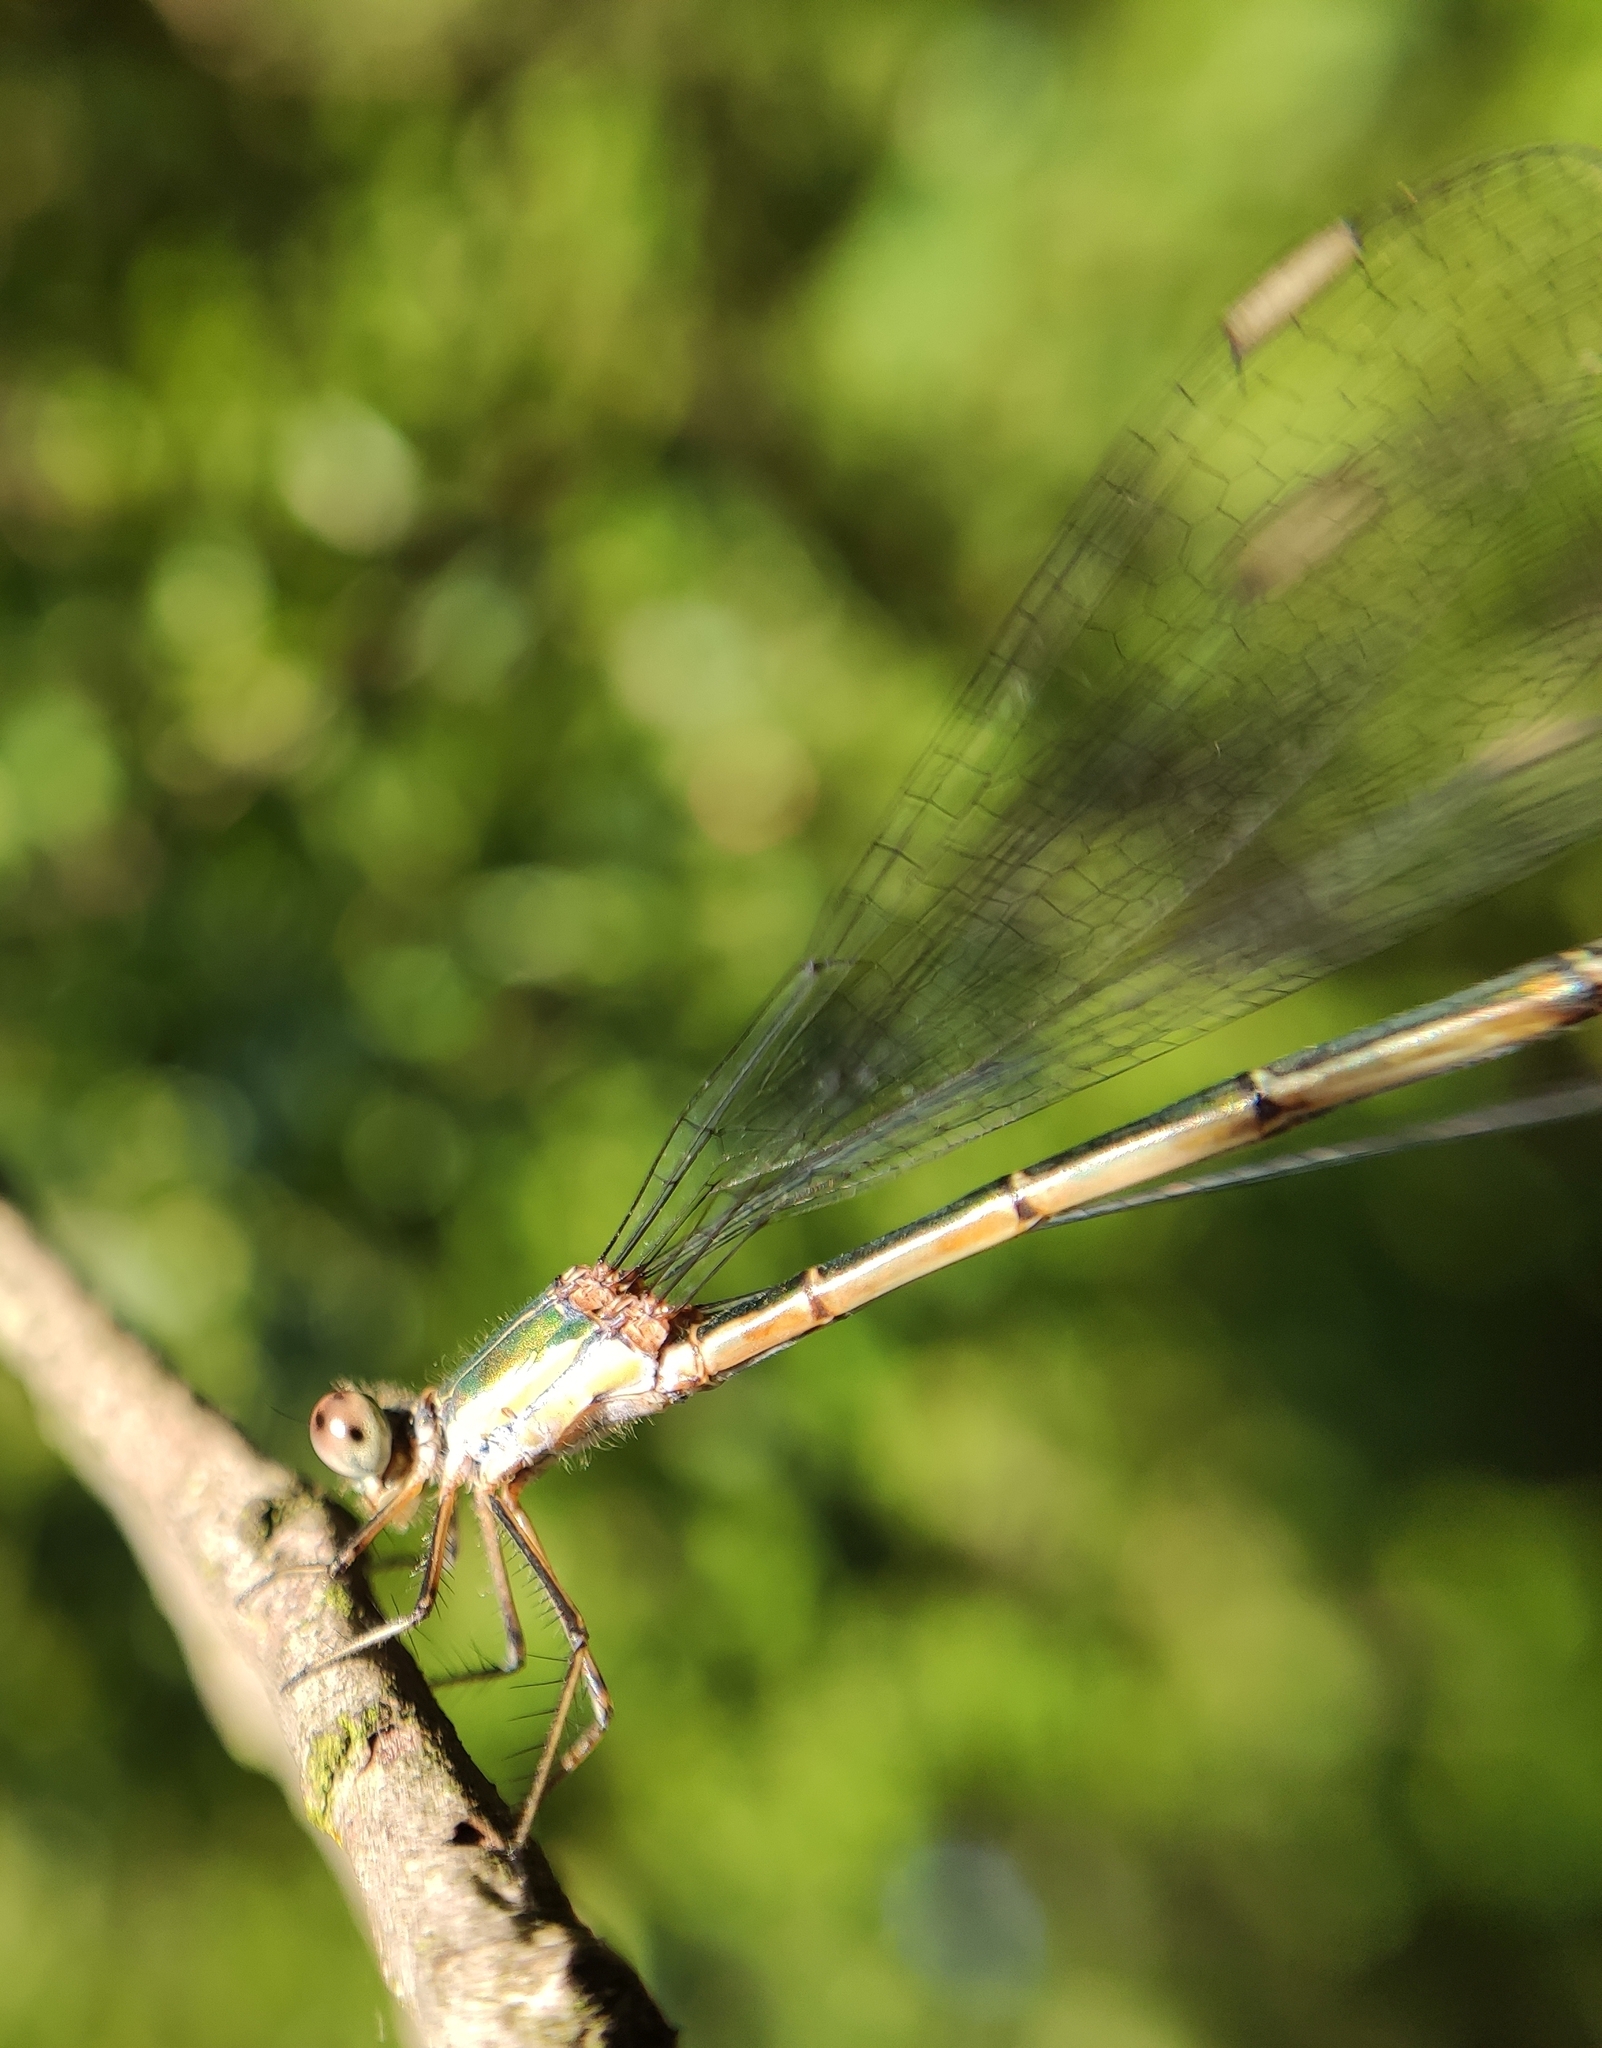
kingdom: Animalia
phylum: Arthropoda
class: Insecta
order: Odonata
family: Lestidae
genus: Chalcolestes
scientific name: Chalcolestes viridis
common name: Green emerald damselfly
